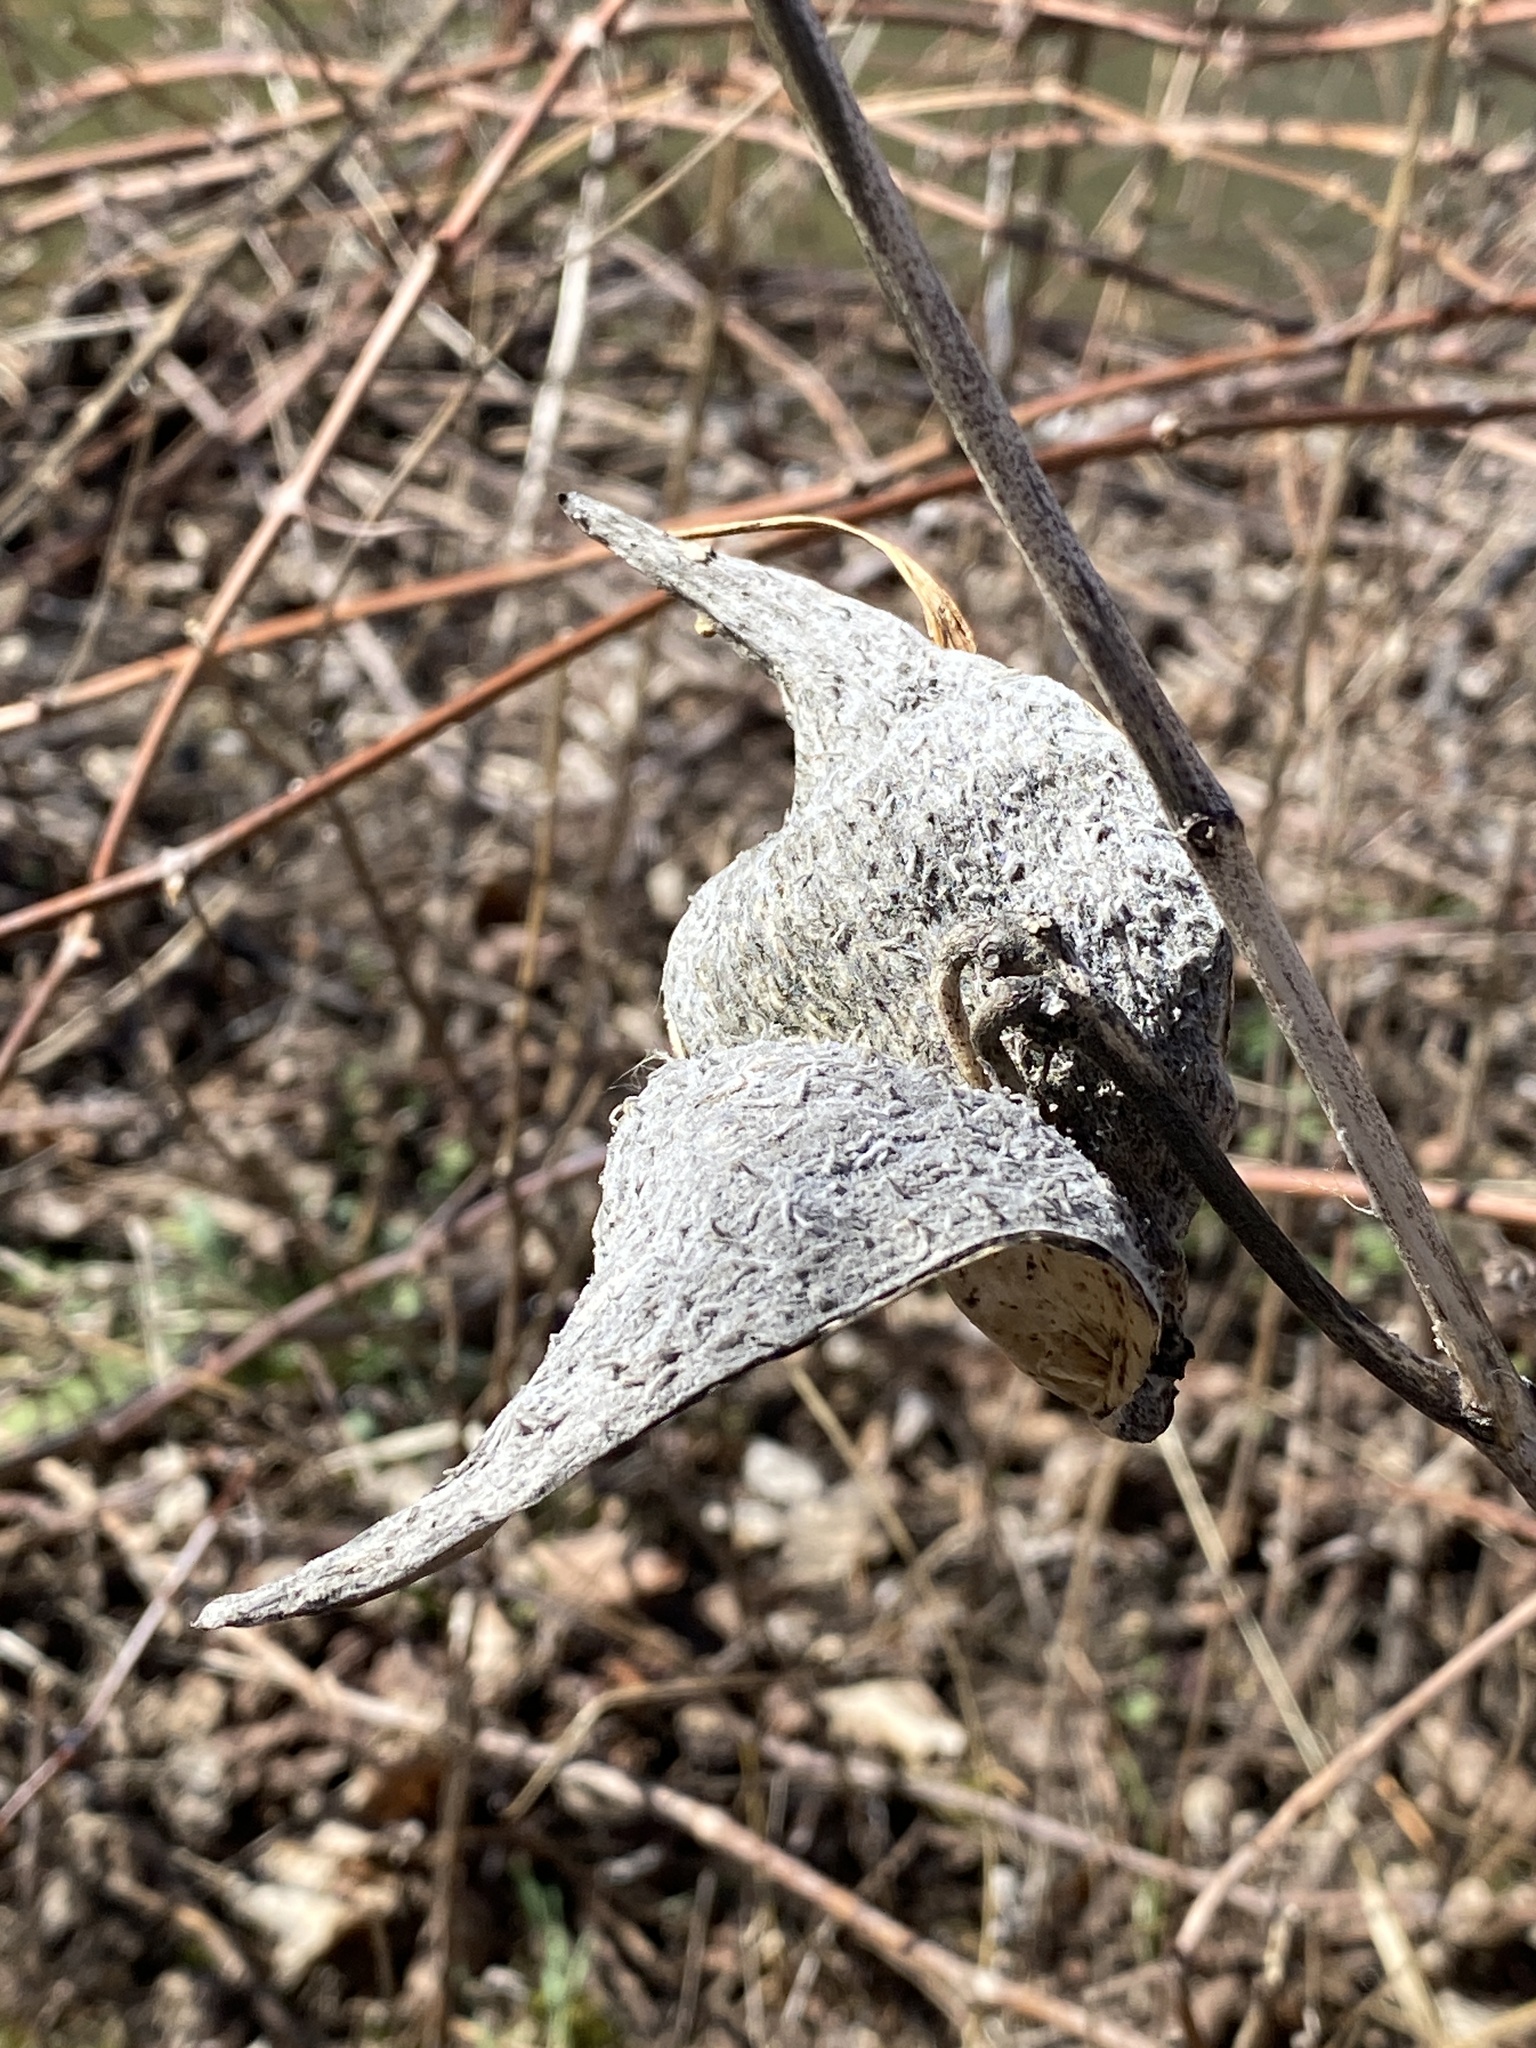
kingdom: Plantae
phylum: Tracheophyta
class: Magnoliopsida
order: Gentianales
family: Apocynaceae
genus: Asclepias
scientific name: Asclepias syriaca
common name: Common milkweed
